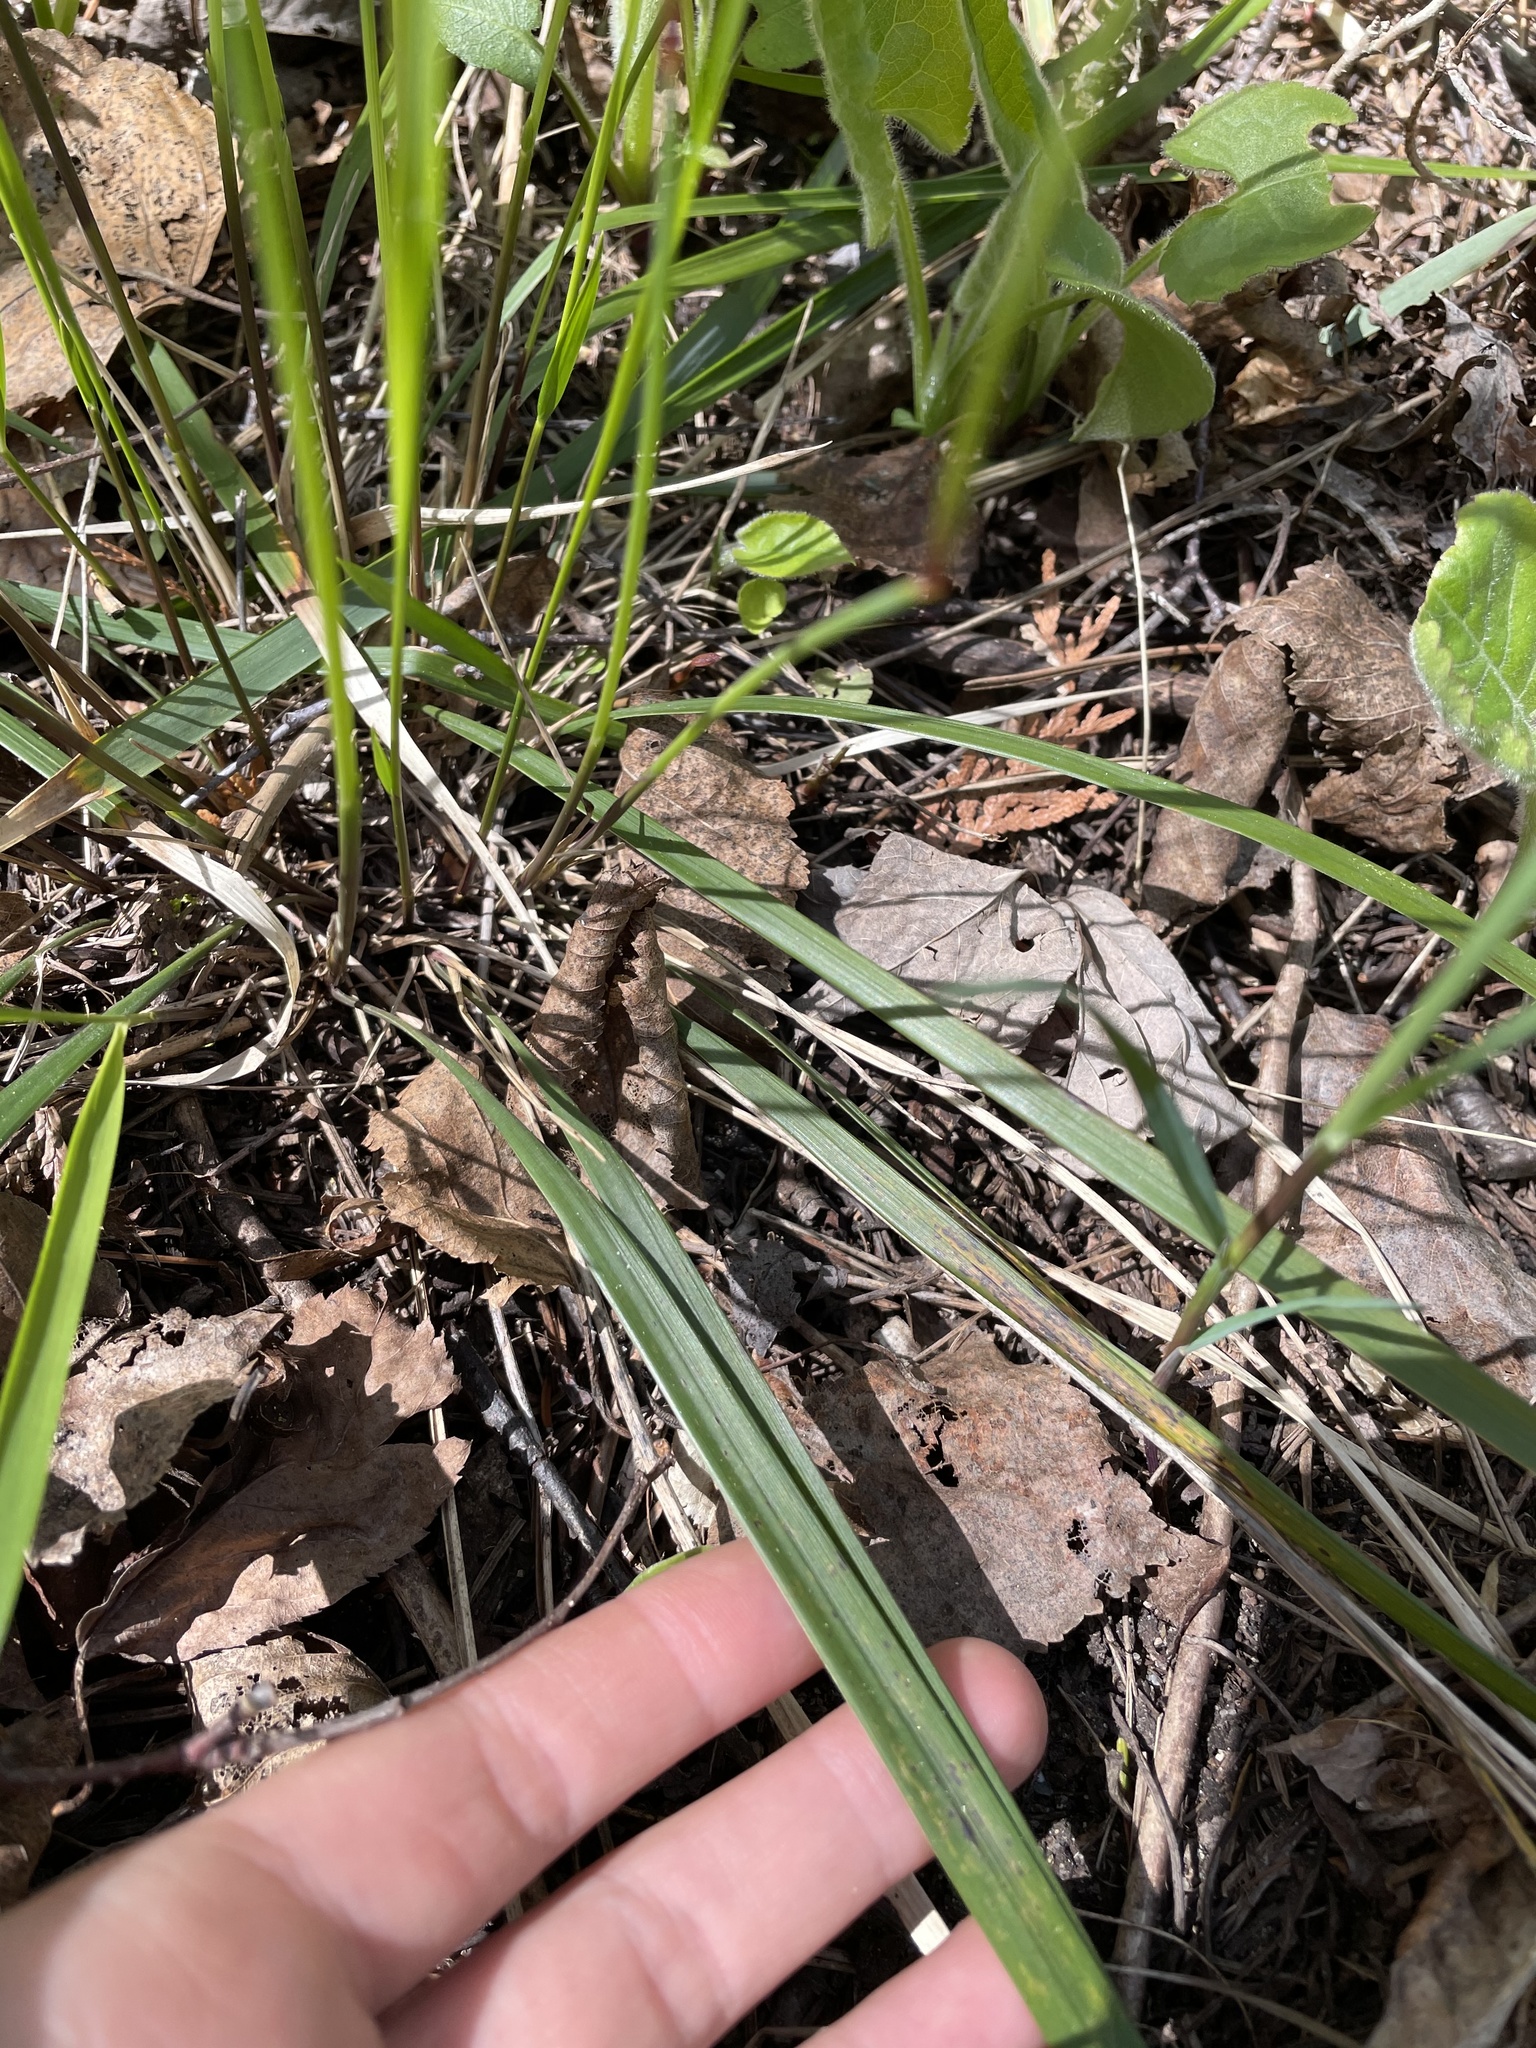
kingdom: Plantae
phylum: Tracheophyta
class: Liliopsida
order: Poales
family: Poaceae
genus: Oryzopsis
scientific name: Oryzopsis asperifolia
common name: Rough-leaved mountain rice
